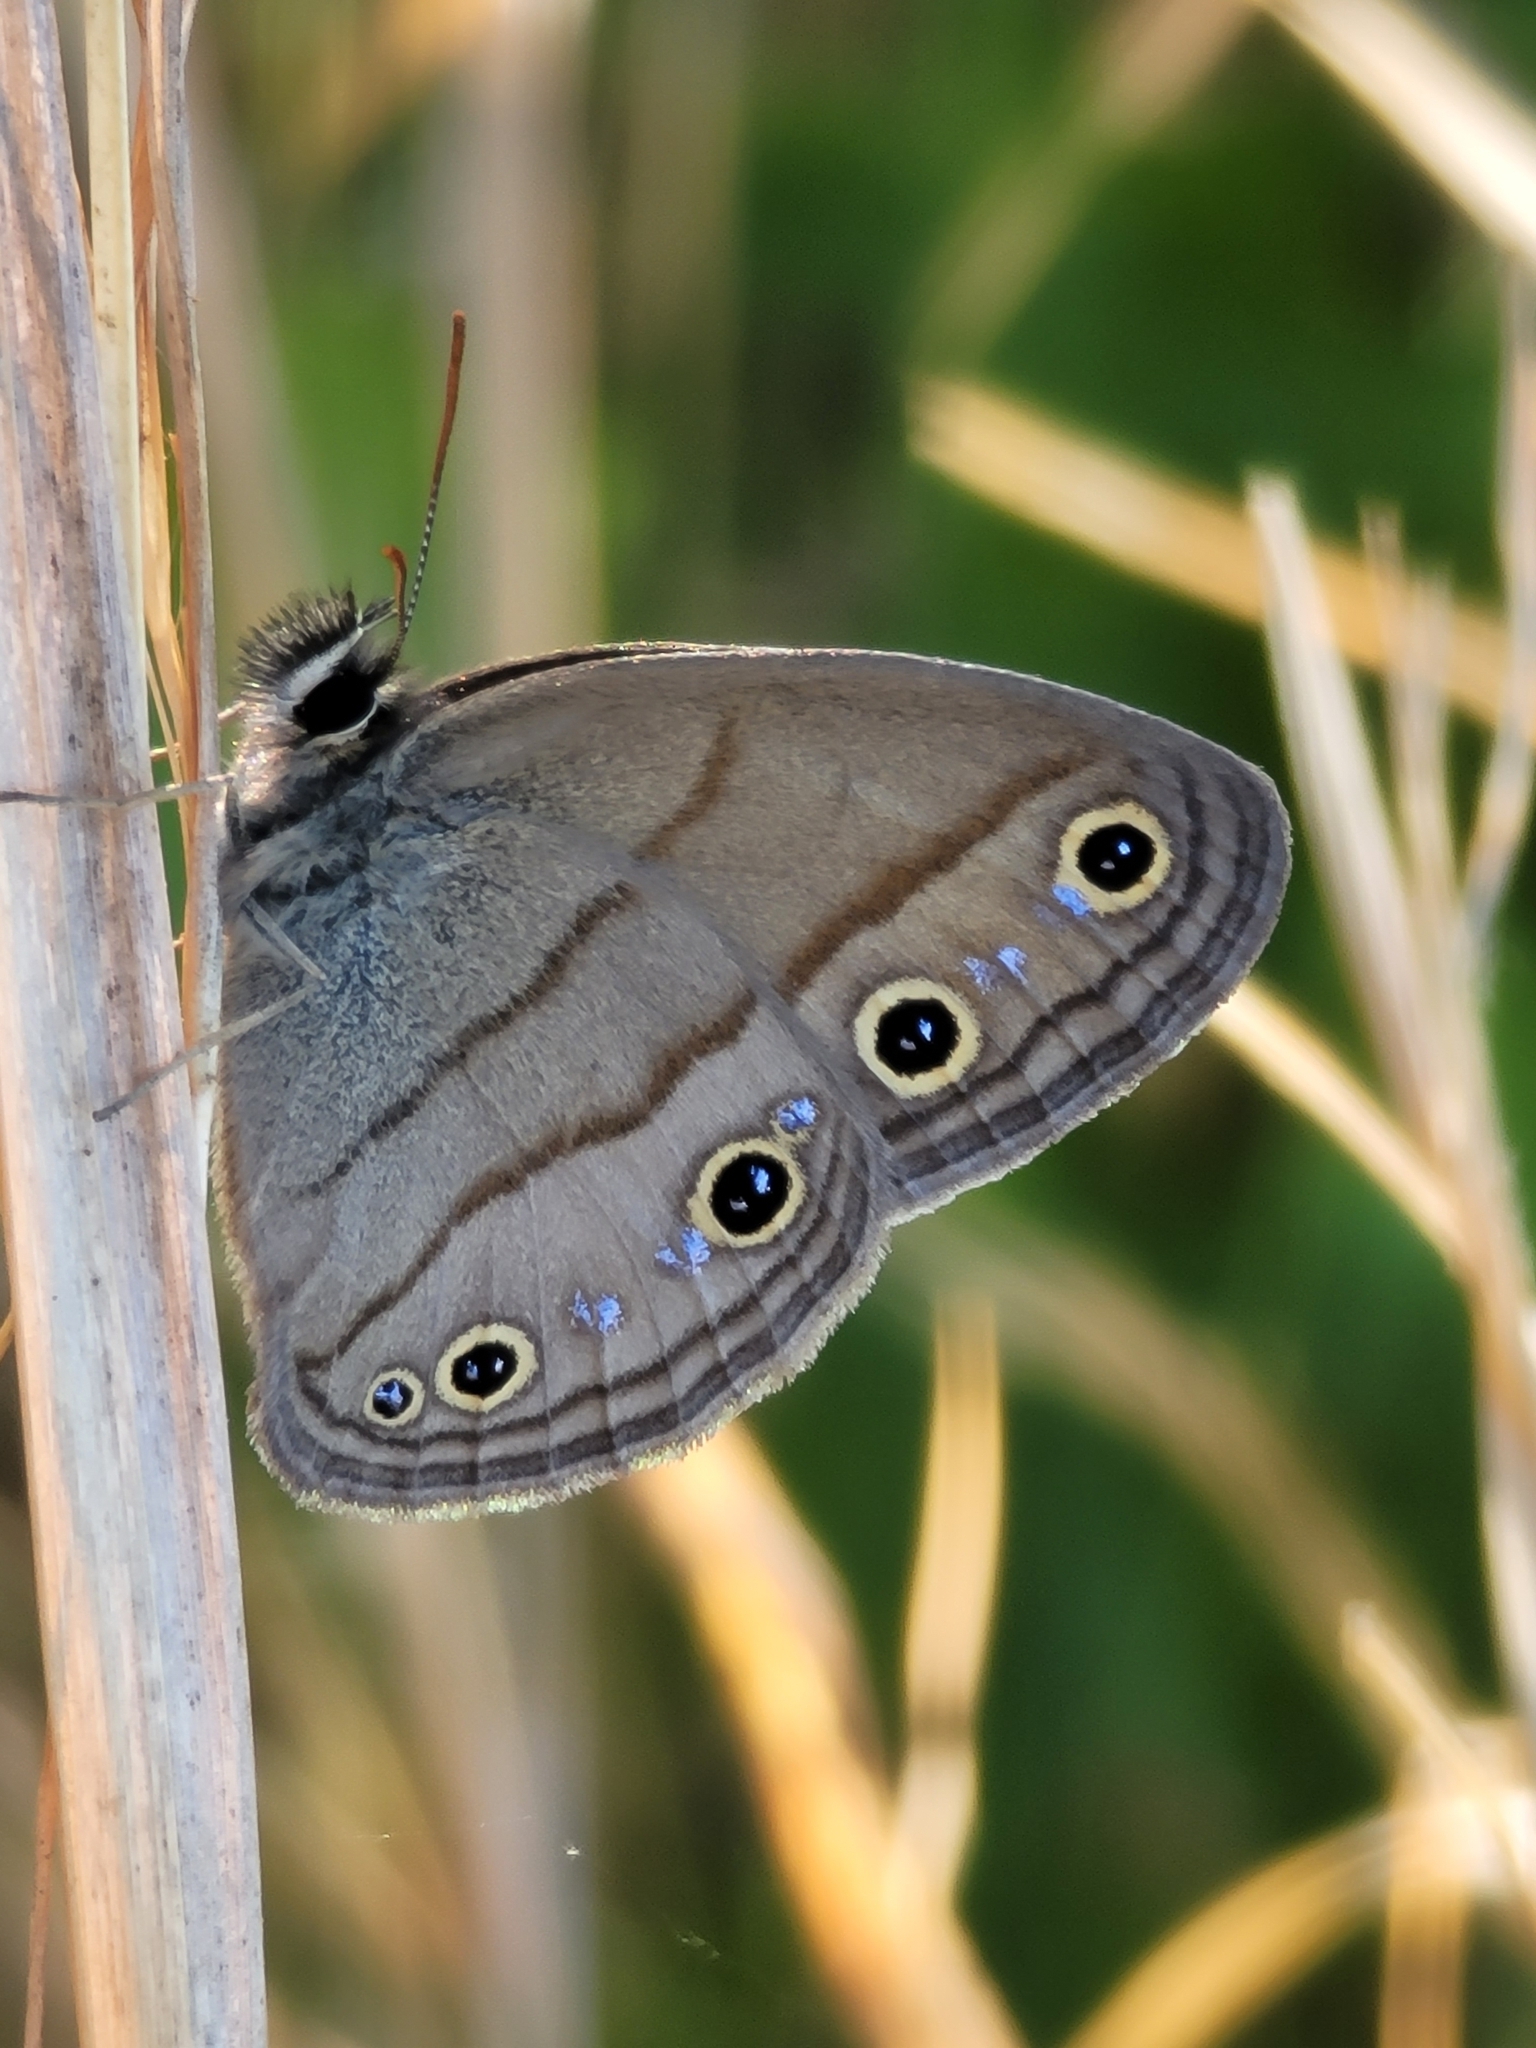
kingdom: Animalia
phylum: Arthropoda
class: Insecta
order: Lepidoptera
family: Nymphalidae
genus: Euptychia
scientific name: Euptychia cymela
